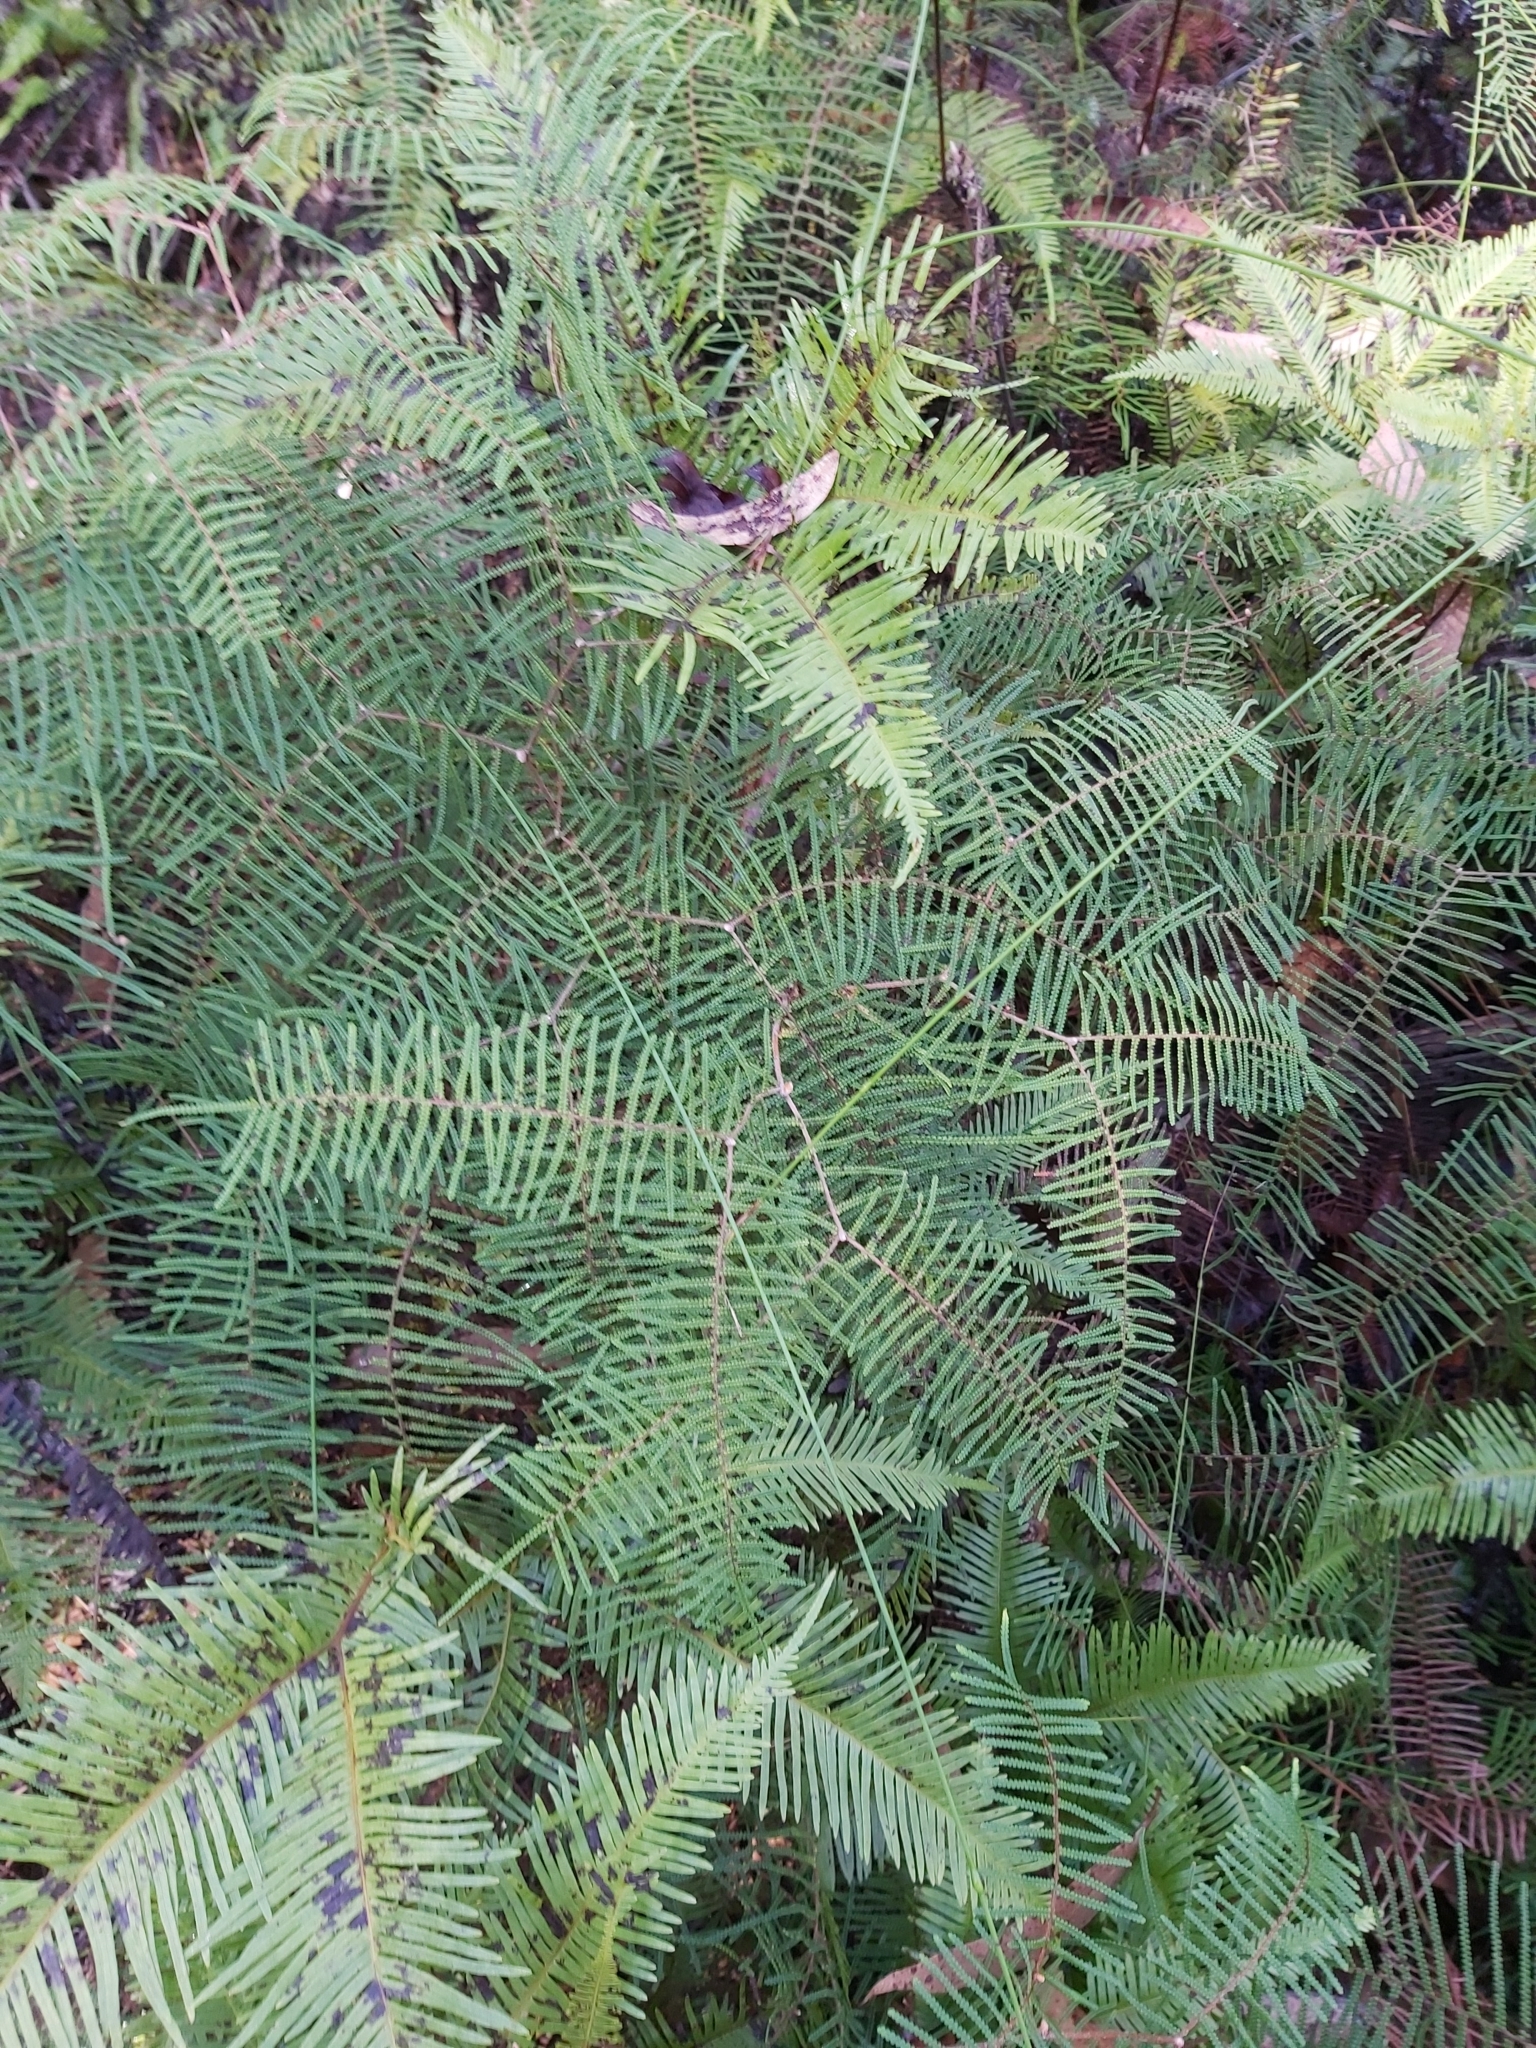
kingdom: Plantae
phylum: Tracheophyta
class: Polypodiopsida
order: Gleicheniales
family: Gleicheniaceae
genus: Gleichenia
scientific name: Gleichenia dicarpa
